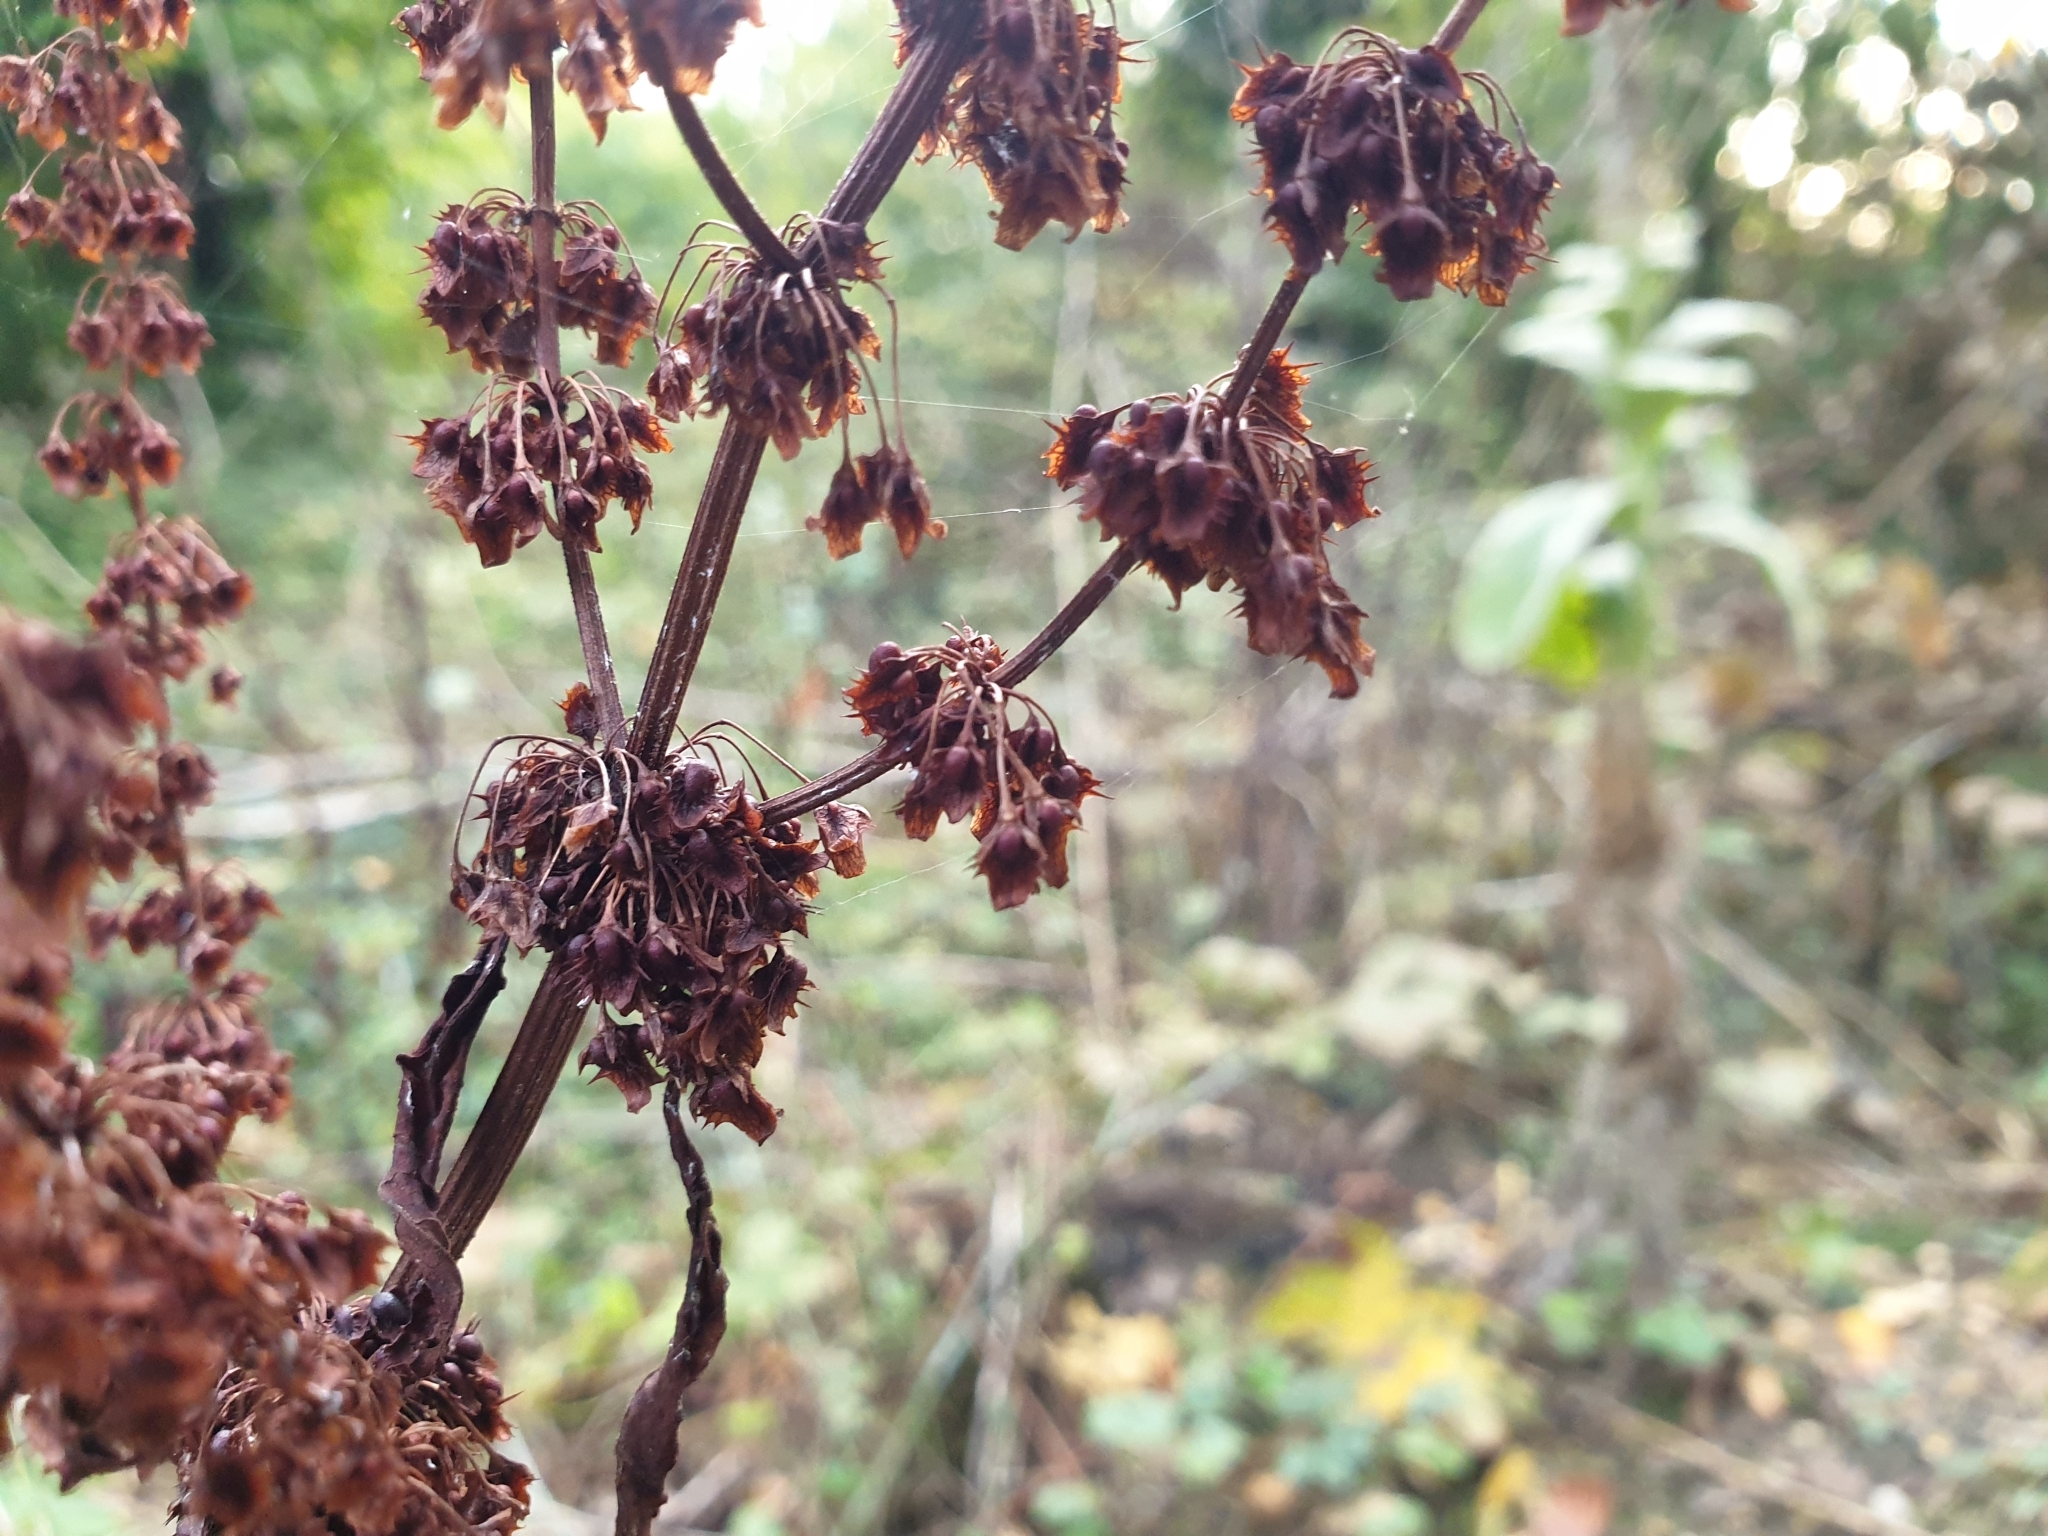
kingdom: Plantae
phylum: Tracheophyta
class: Magnoliopsida
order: Caryophyllales
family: Polygonaceae
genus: Rumex
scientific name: Rumex obtusifolius
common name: Bitter dock
